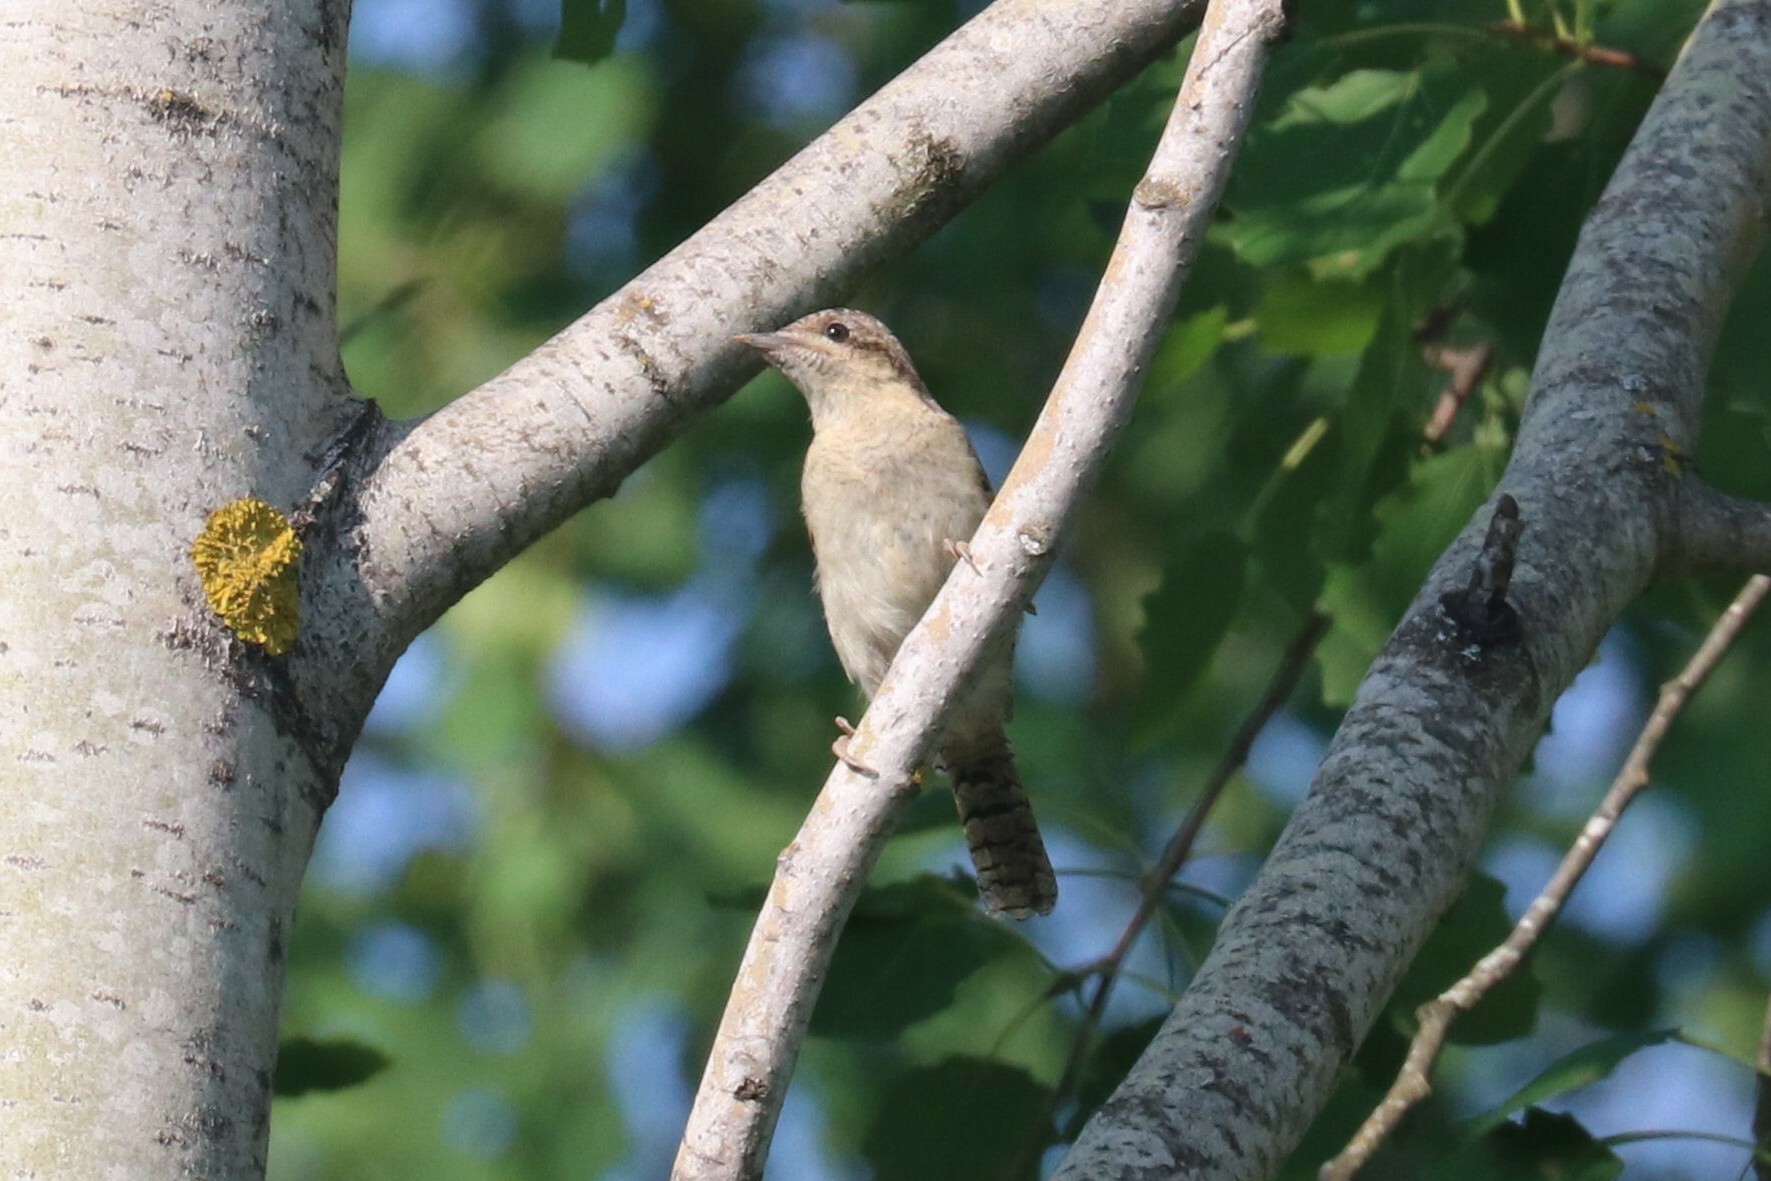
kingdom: Animalia
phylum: Chordata
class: Aves
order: Piciformes
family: Picidae
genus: Jynx
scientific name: Jynx torquilla
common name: Eurasian wryneck
